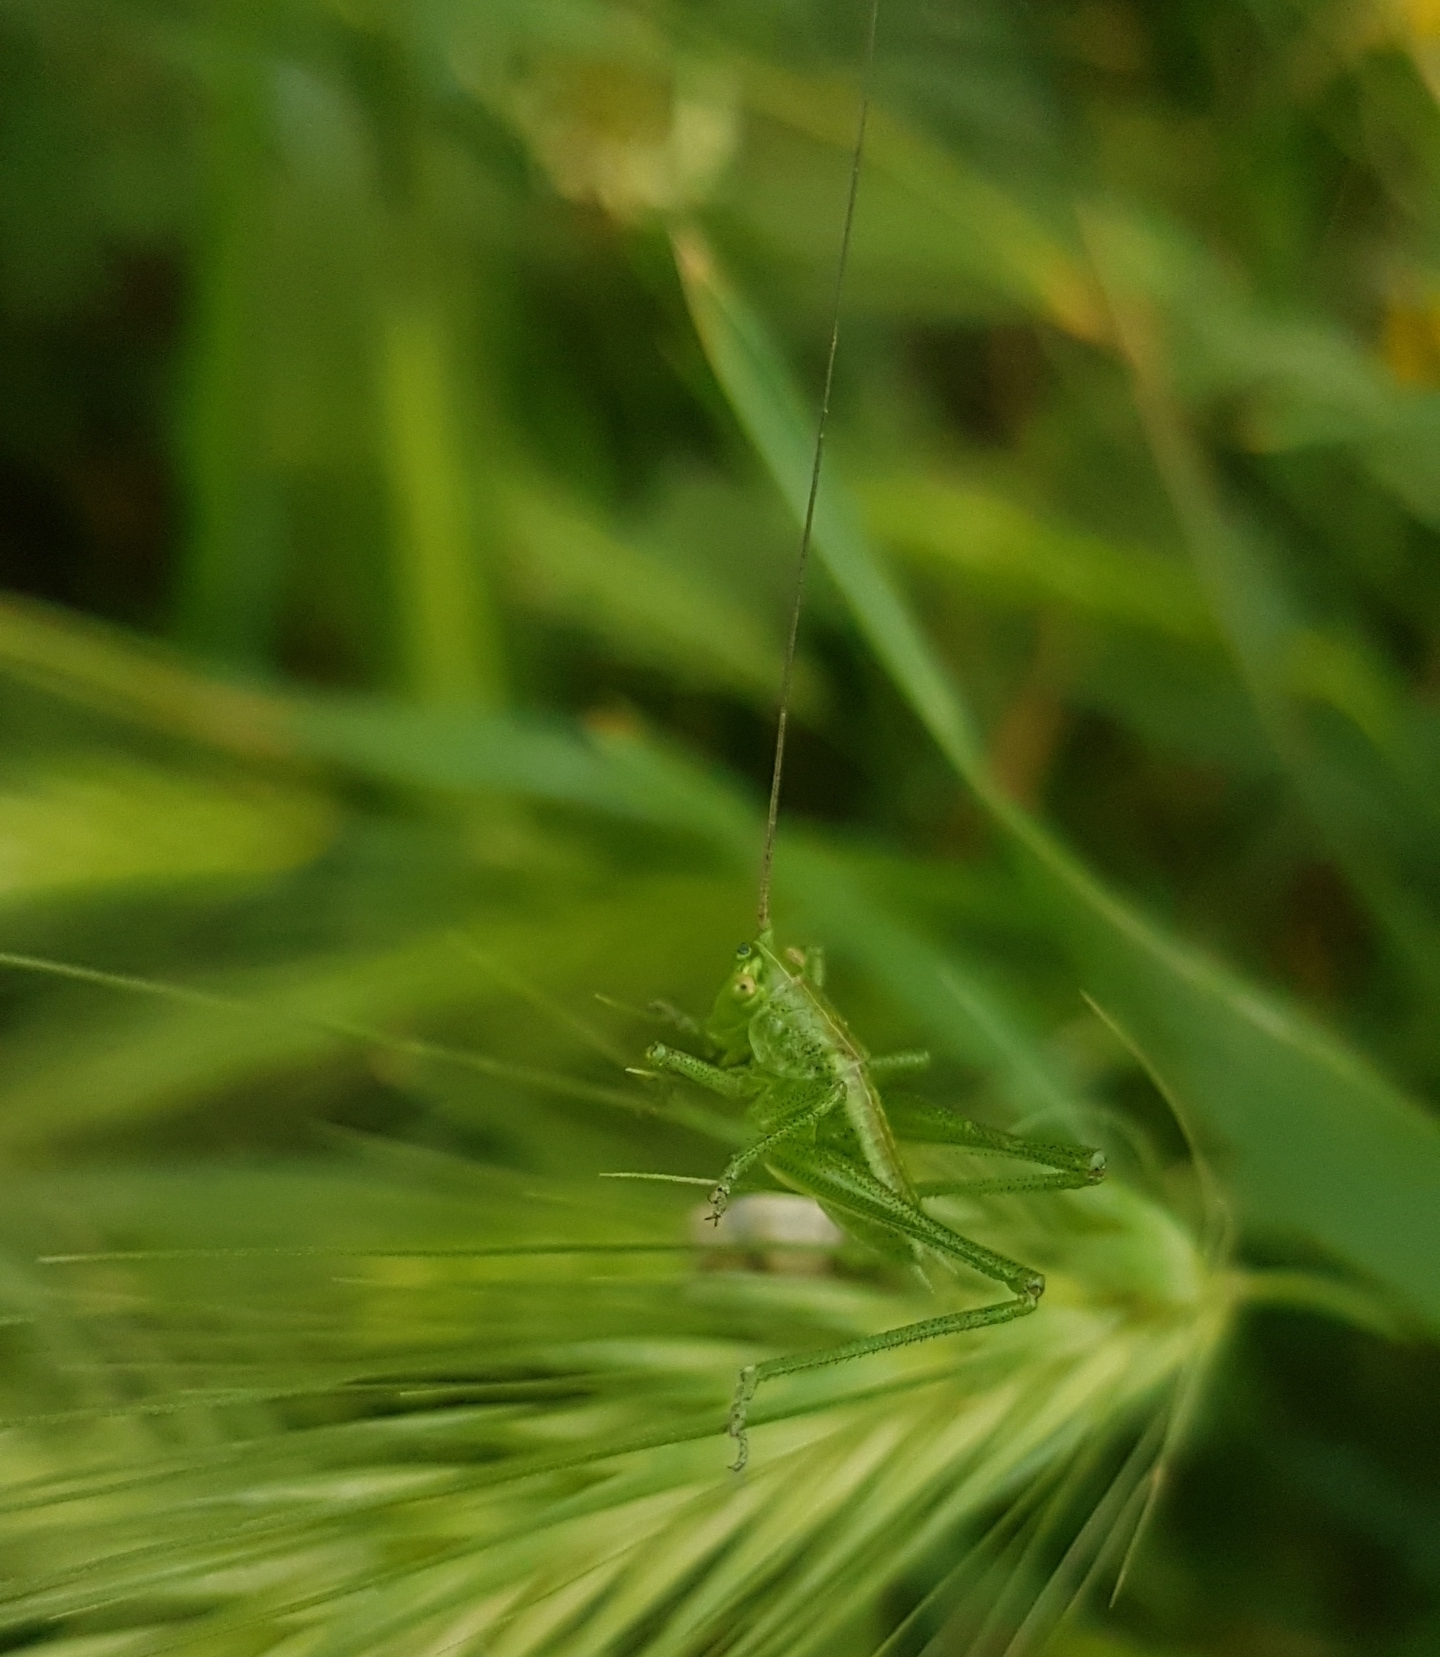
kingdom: Animalia
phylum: Arthropoda
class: Insecta
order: Orthoptera
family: Tettigoniidae
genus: Tettigonia
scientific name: Tettigonia viridissima
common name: Great green bush-cricket
